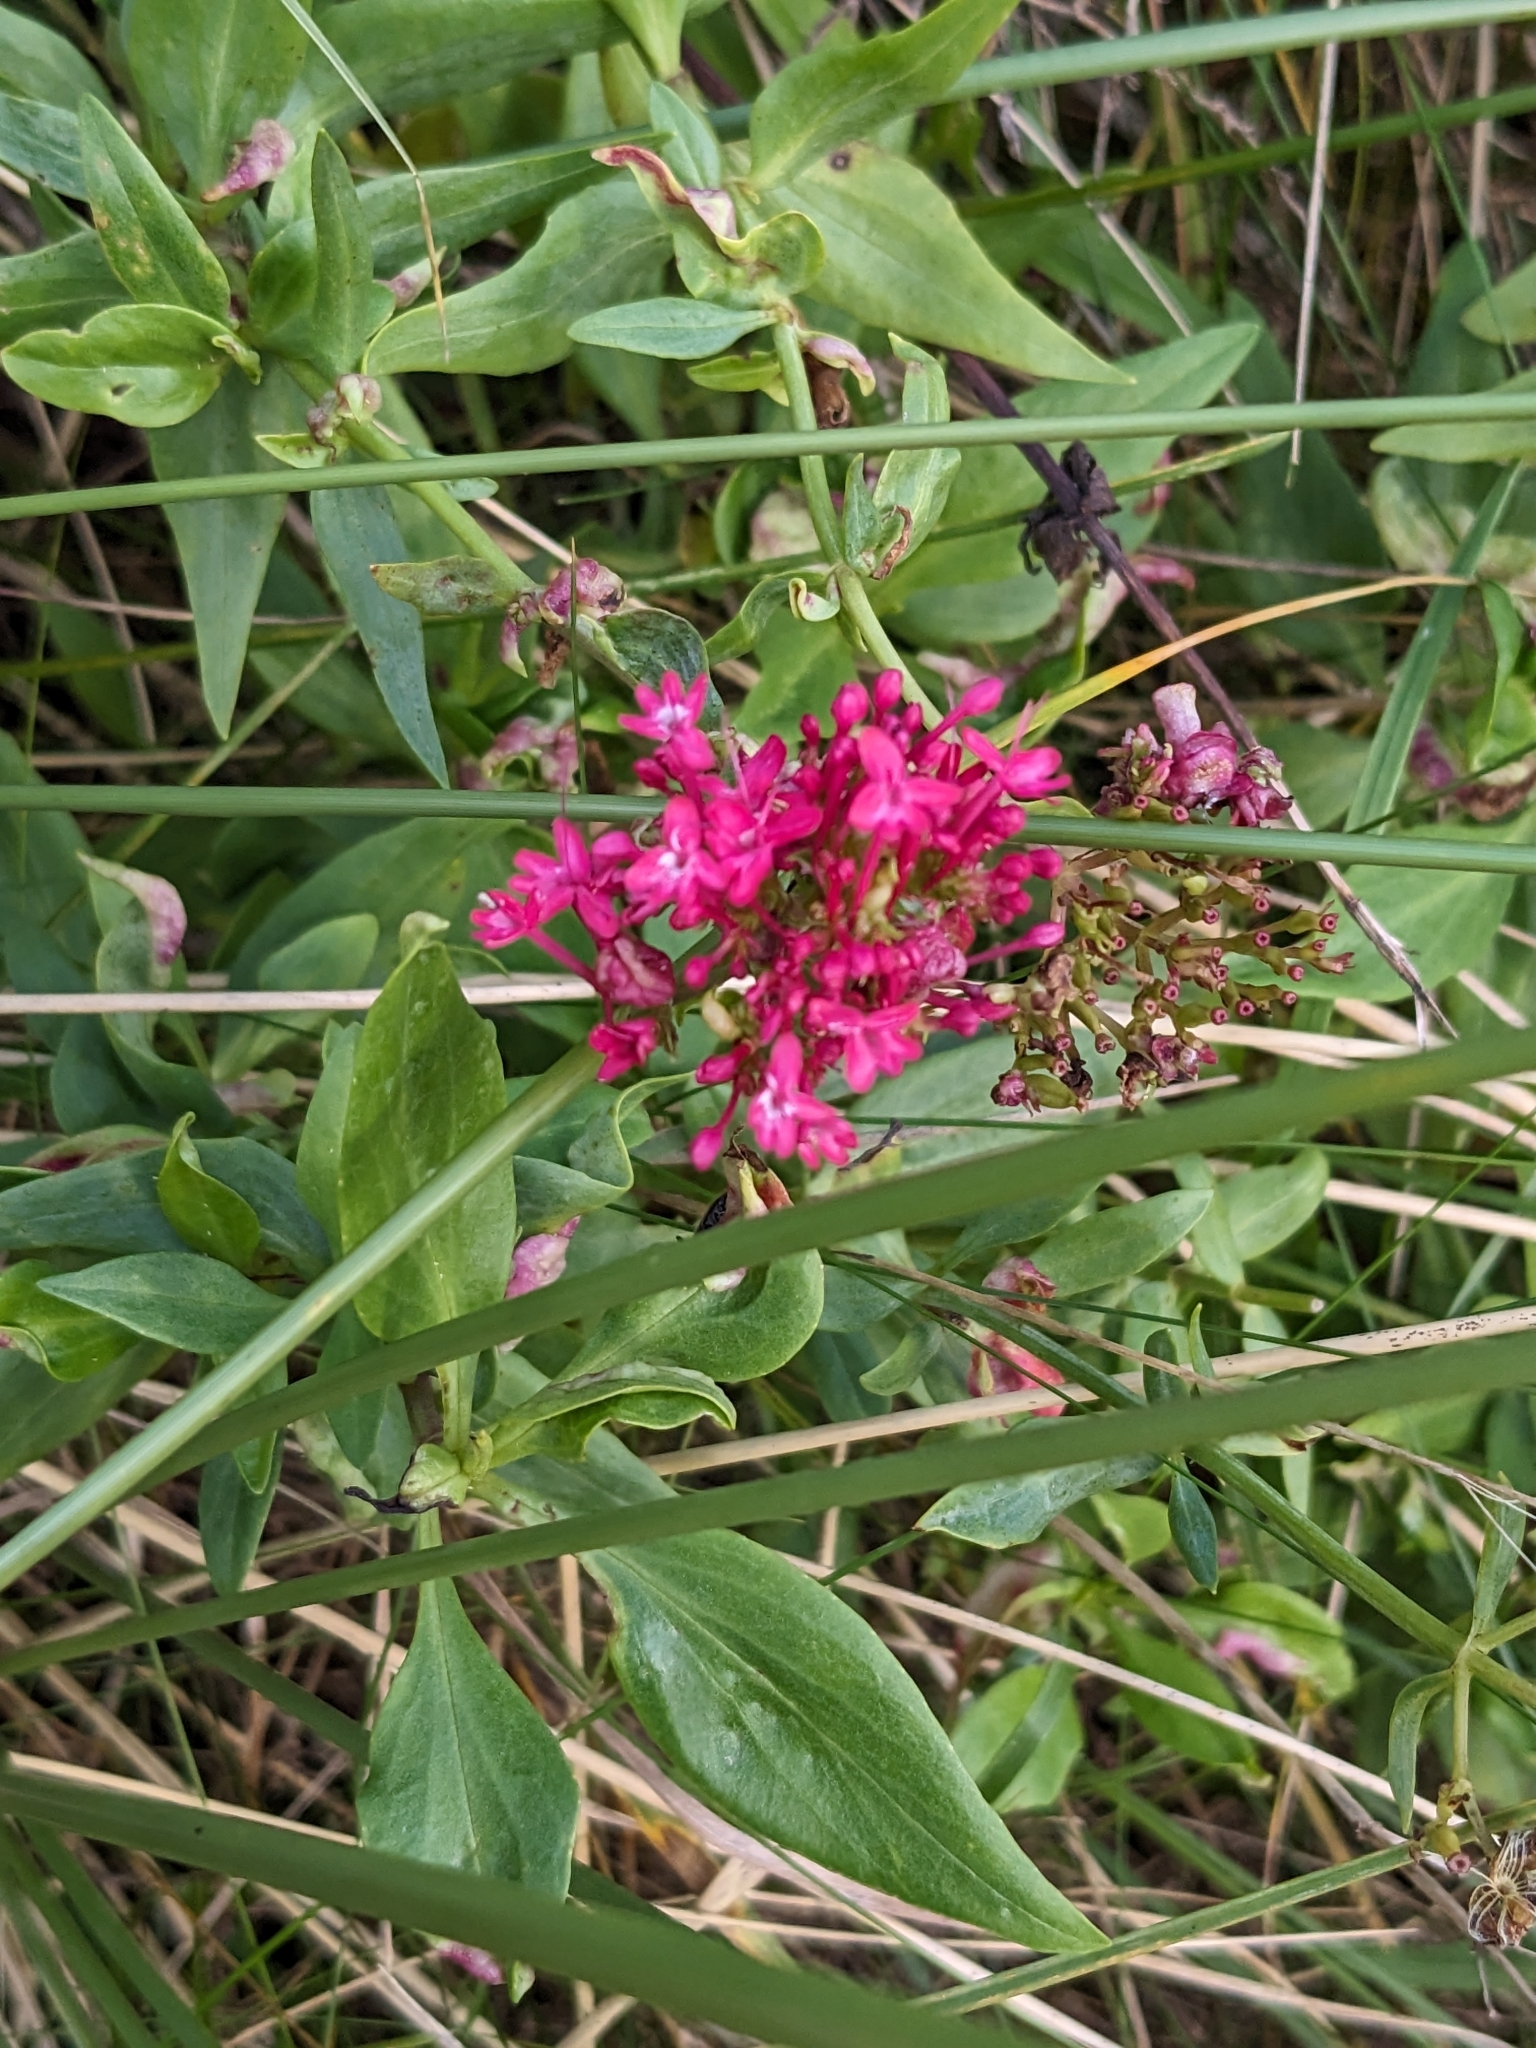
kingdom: Plantae
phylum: Tracheophyta
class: Magnoliopsida
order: Dipsacales
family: Caprifoliaceae
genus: Centranthus
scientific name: Centranthus ruber
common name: Red valerian
